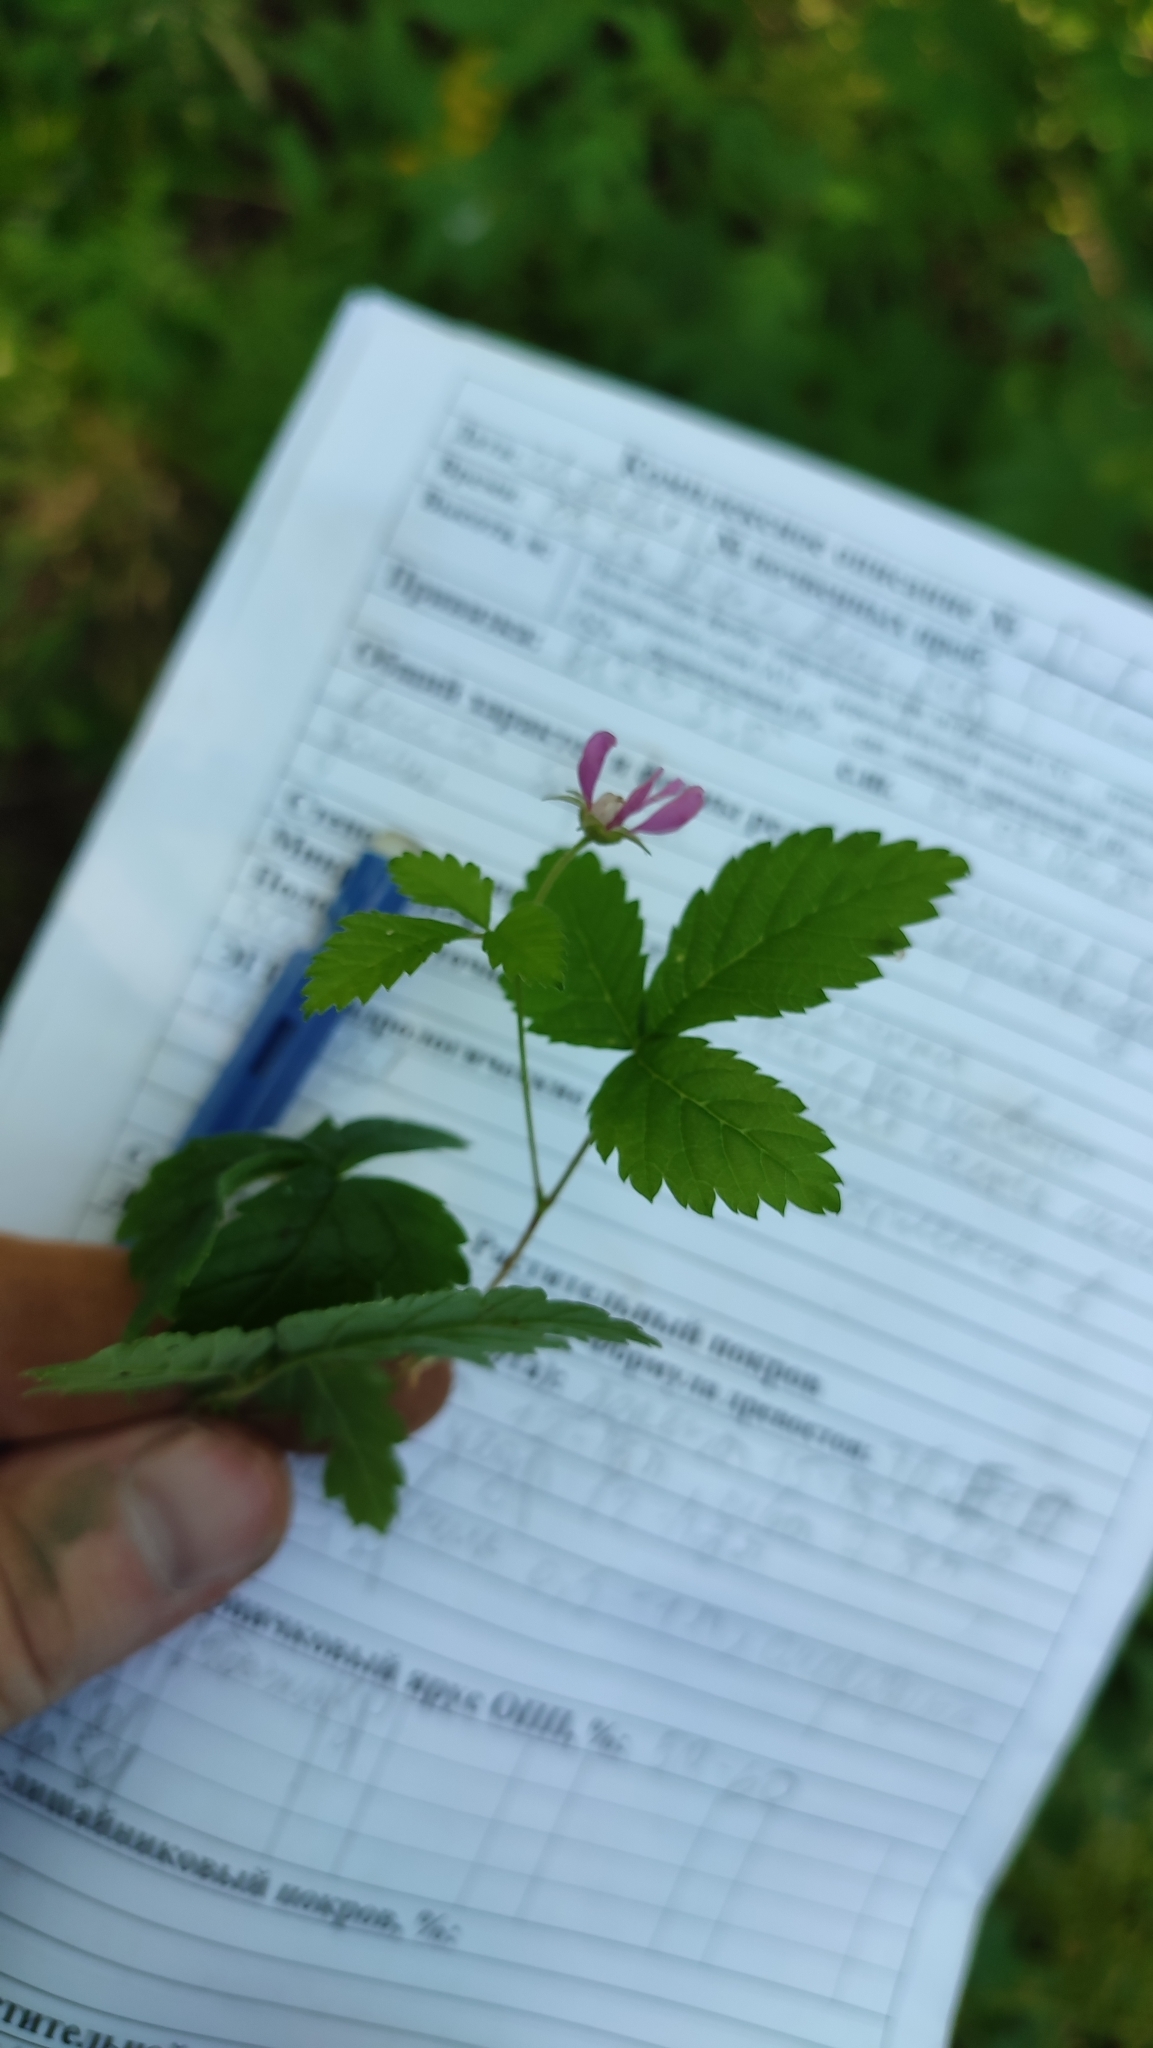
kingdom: Plantae
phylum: Tracheophyta
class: Magnoliopsida
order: Rosales
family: Rosaceae
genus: Rubus
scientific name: Rubus arcticus
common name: Arctic bramble
